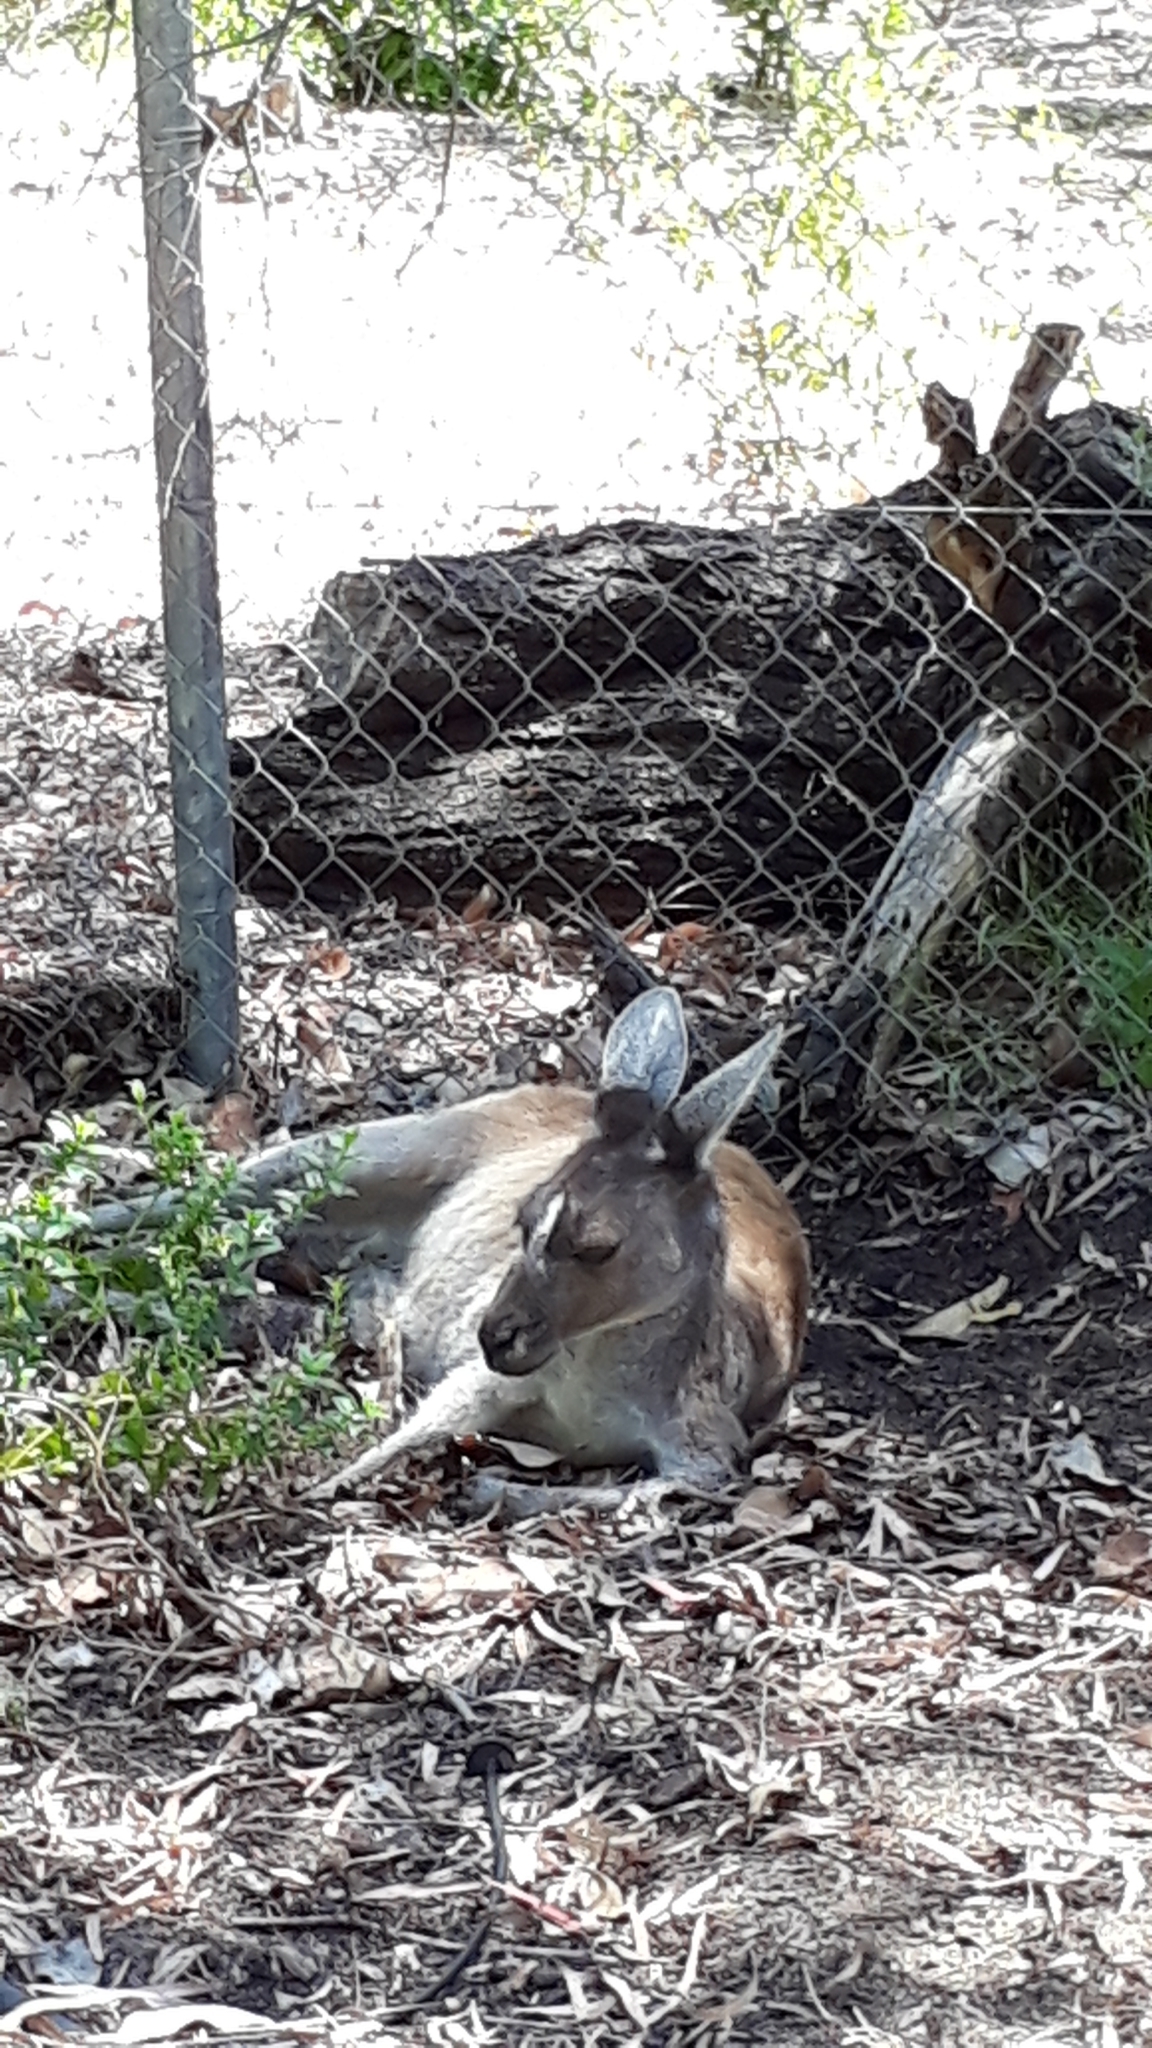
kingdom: Animalia
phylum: Chordata
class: Mammalia
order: Diprotodontia
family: Macropodidae
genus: Macropus
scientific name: Macropus fuliginosus
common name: Western grey kangaroo
